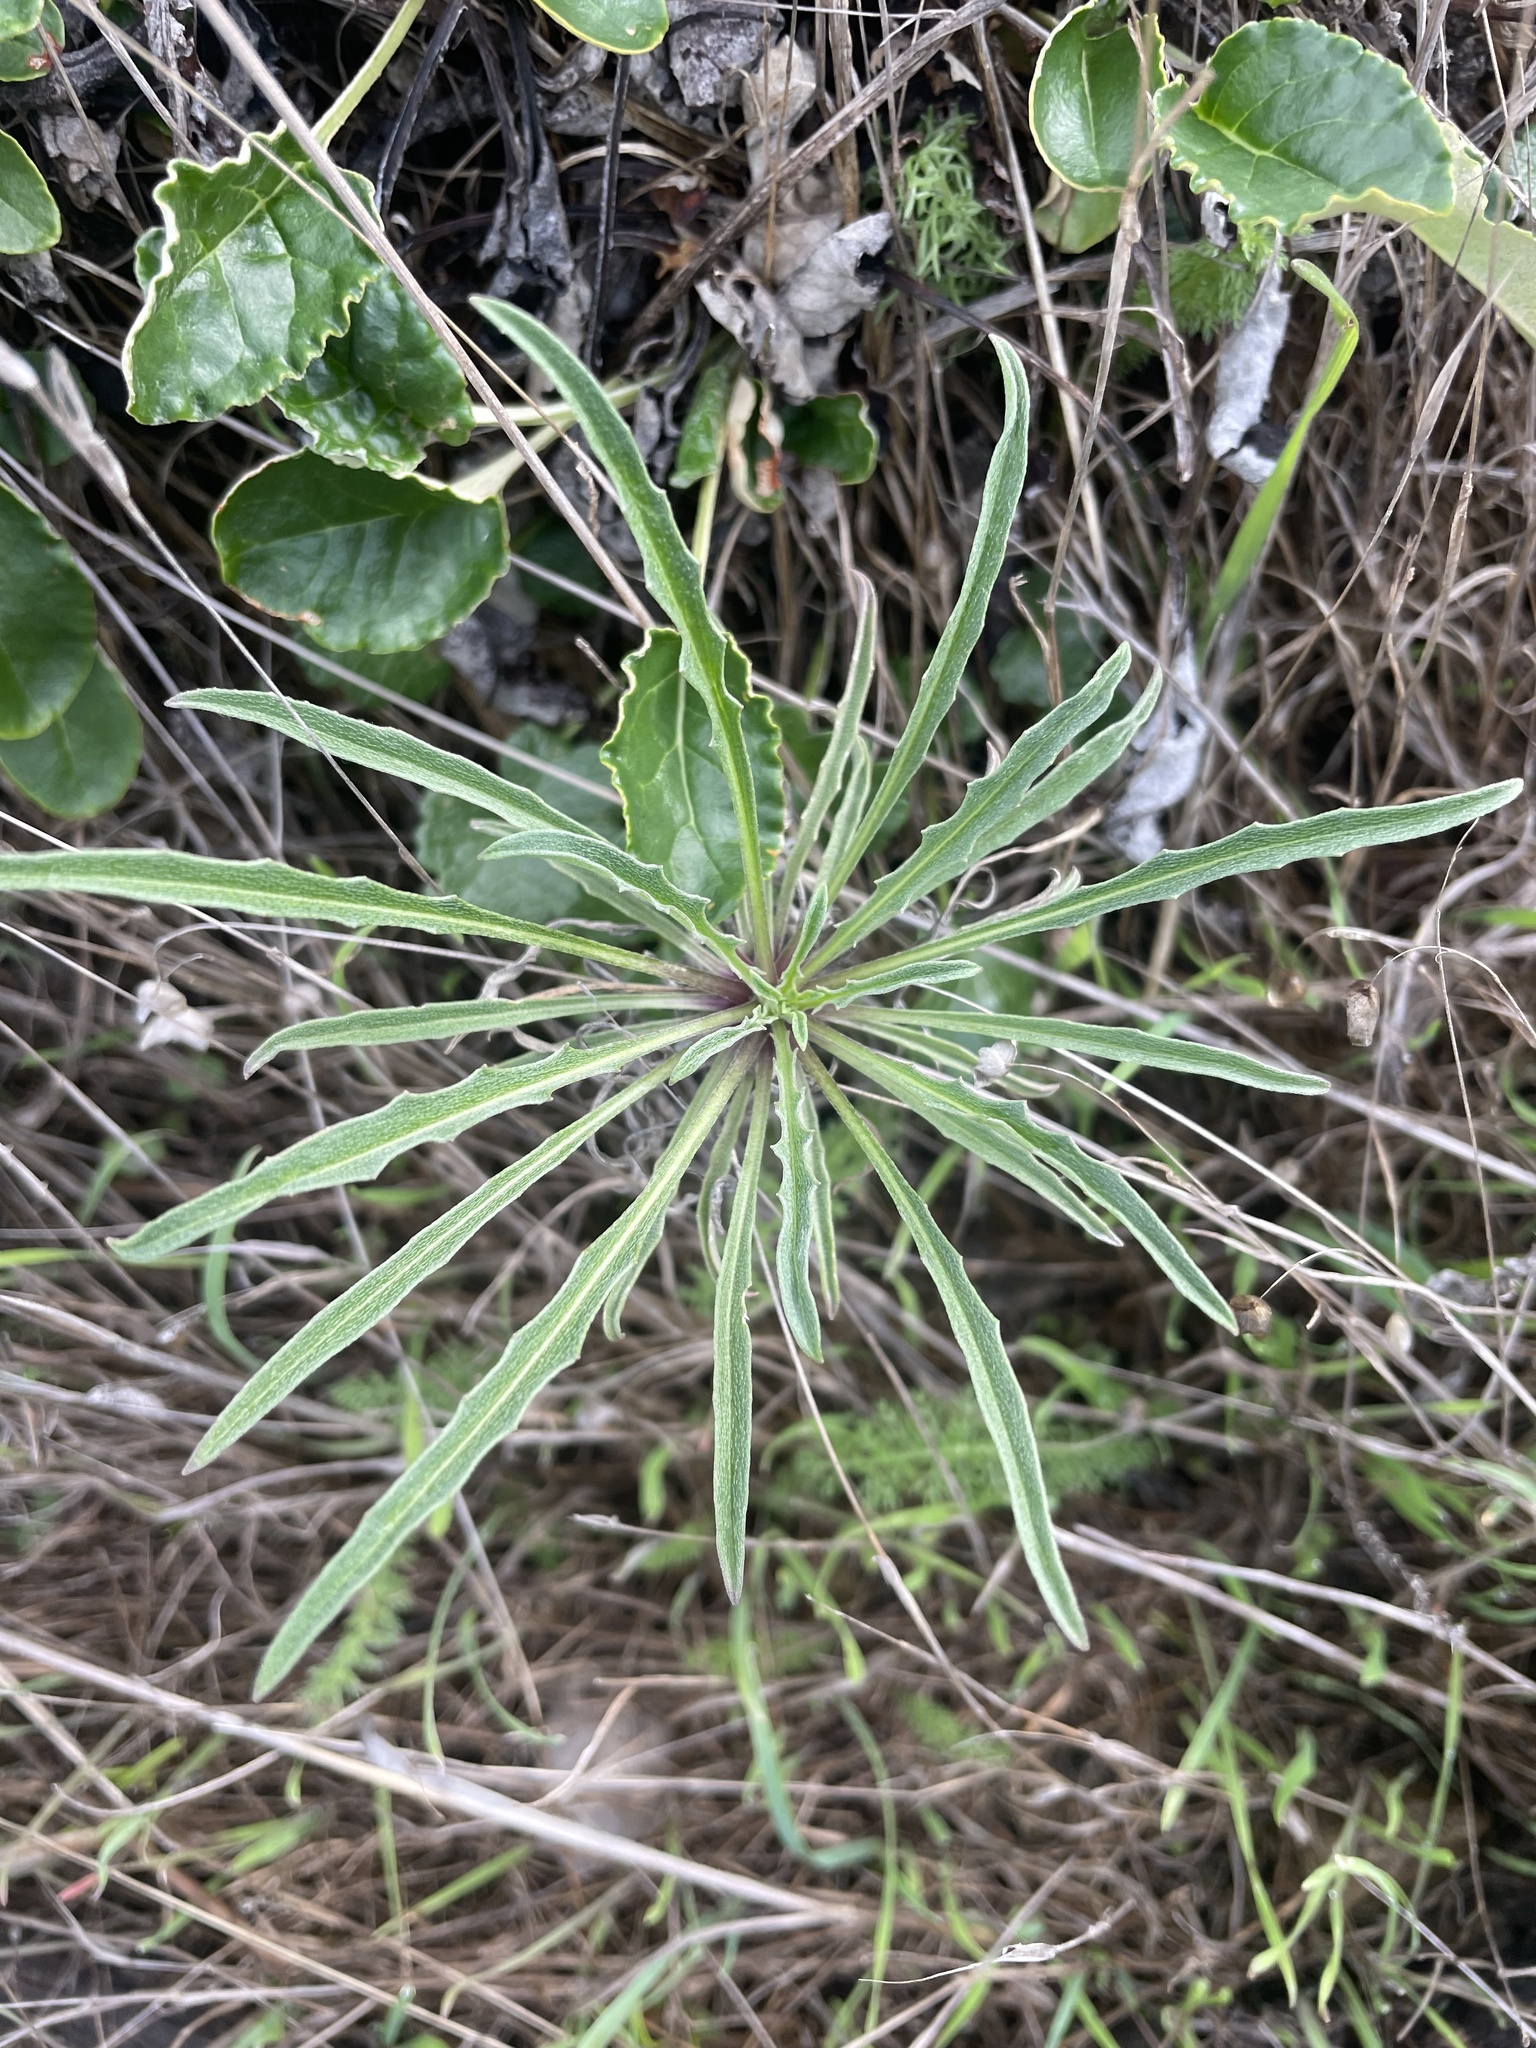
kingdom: Plantae
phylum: Tracheophyta
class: Magnoliopsida
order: Brassicales
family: Brassicaceae
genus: Erysimum
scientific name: Erysimum franciscanum
